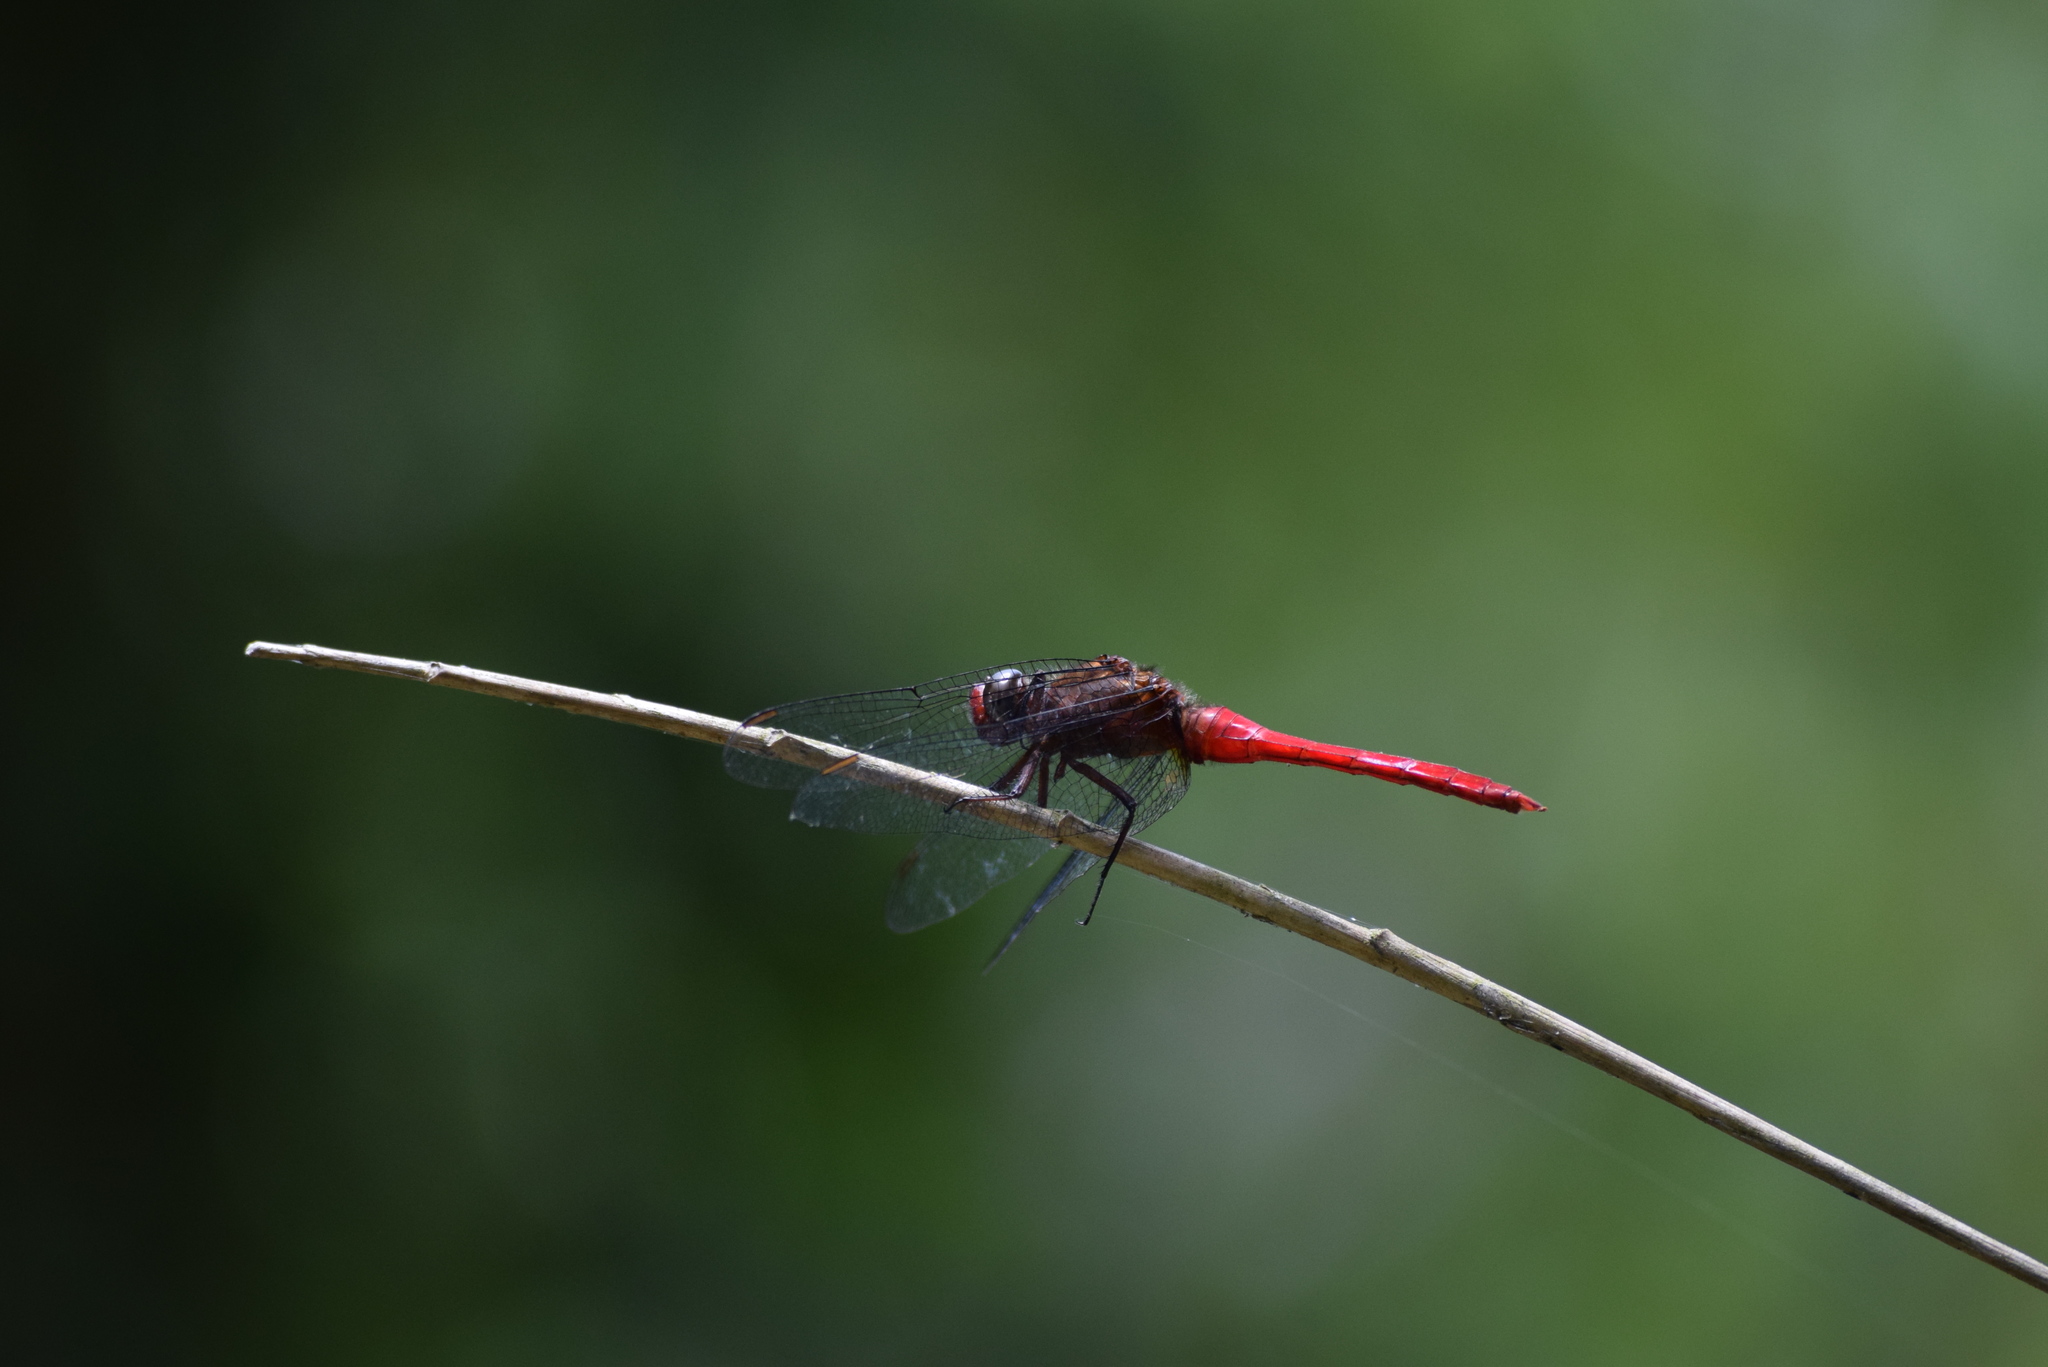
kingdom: Animalia
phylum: Arthropoda
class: Insecta
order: Odonata
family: Libellulidae
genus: Orthetrum
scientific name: Orthetrum chrysis
